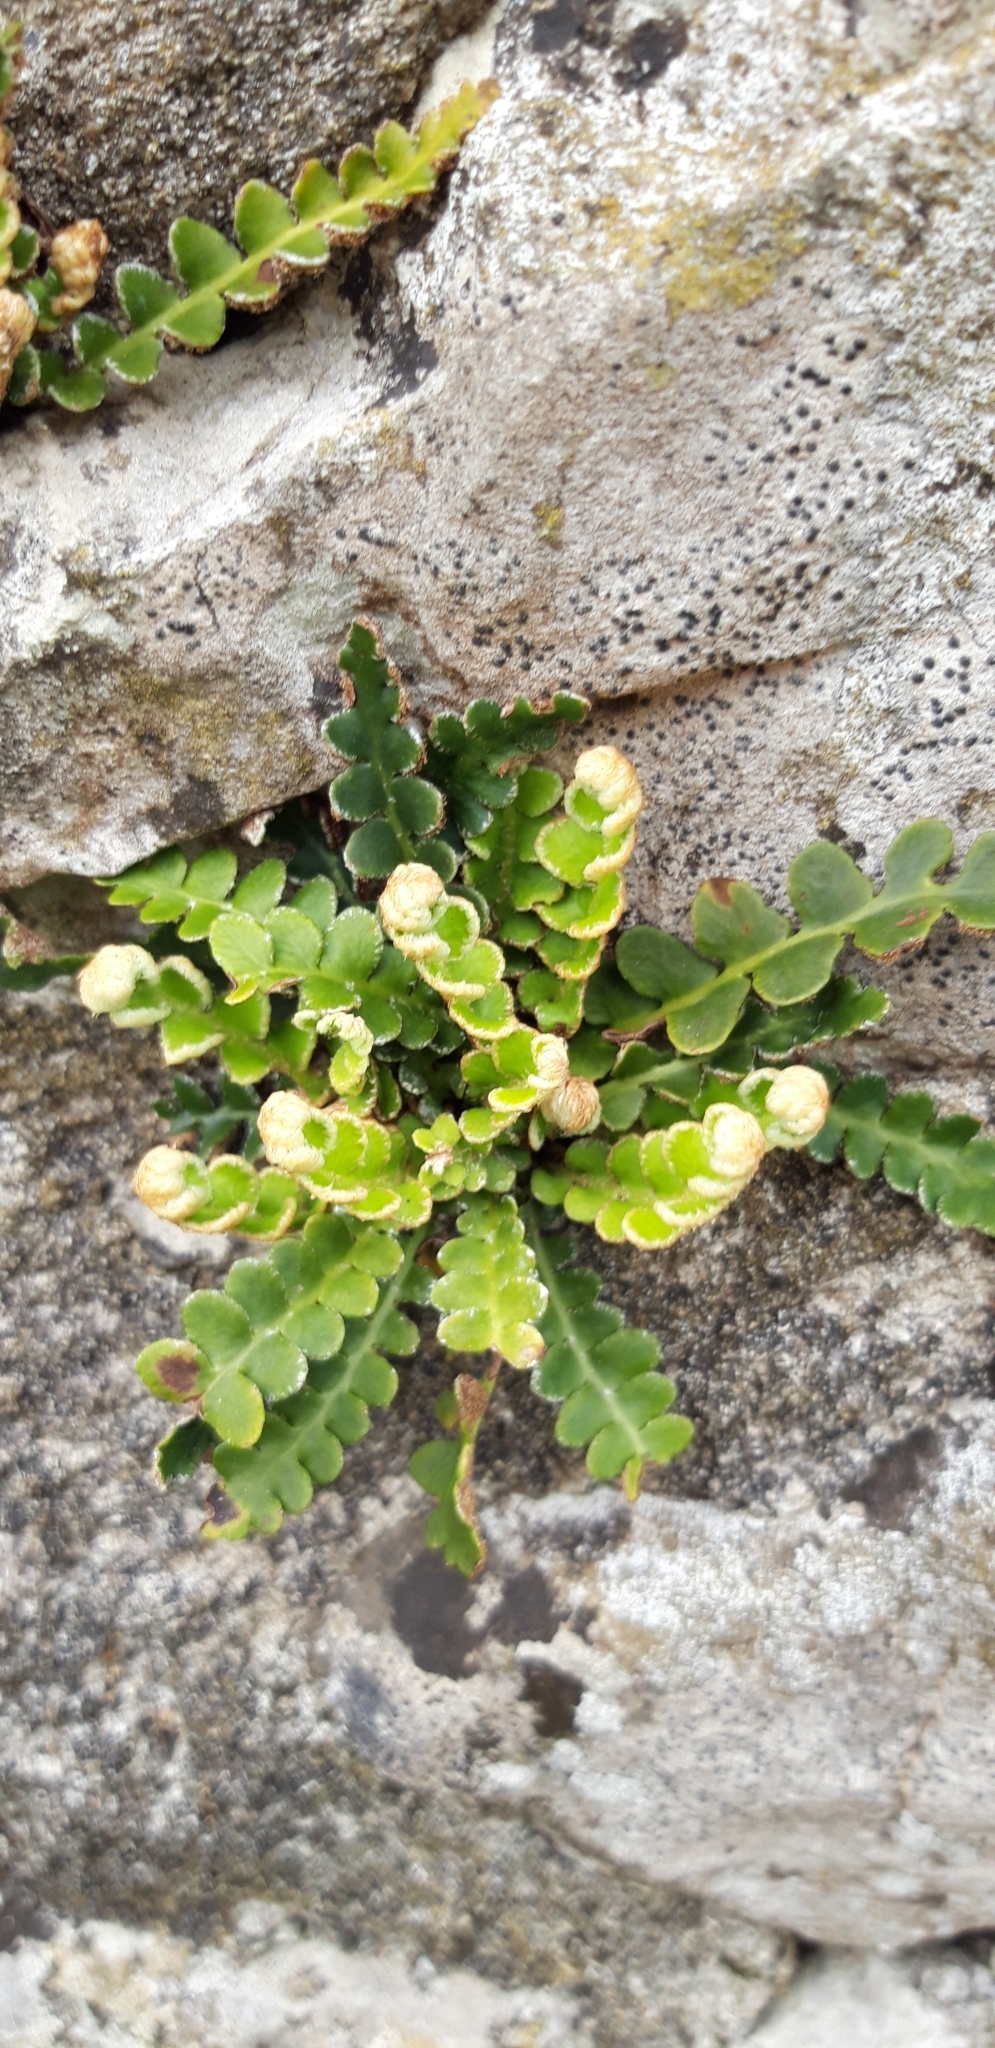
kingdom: Plantae
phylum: Tracheophyta
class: Polypodiopsida
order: Polypodiales
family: Aspleniaceae
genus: Asplenium
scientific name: Asplenium ceterach
